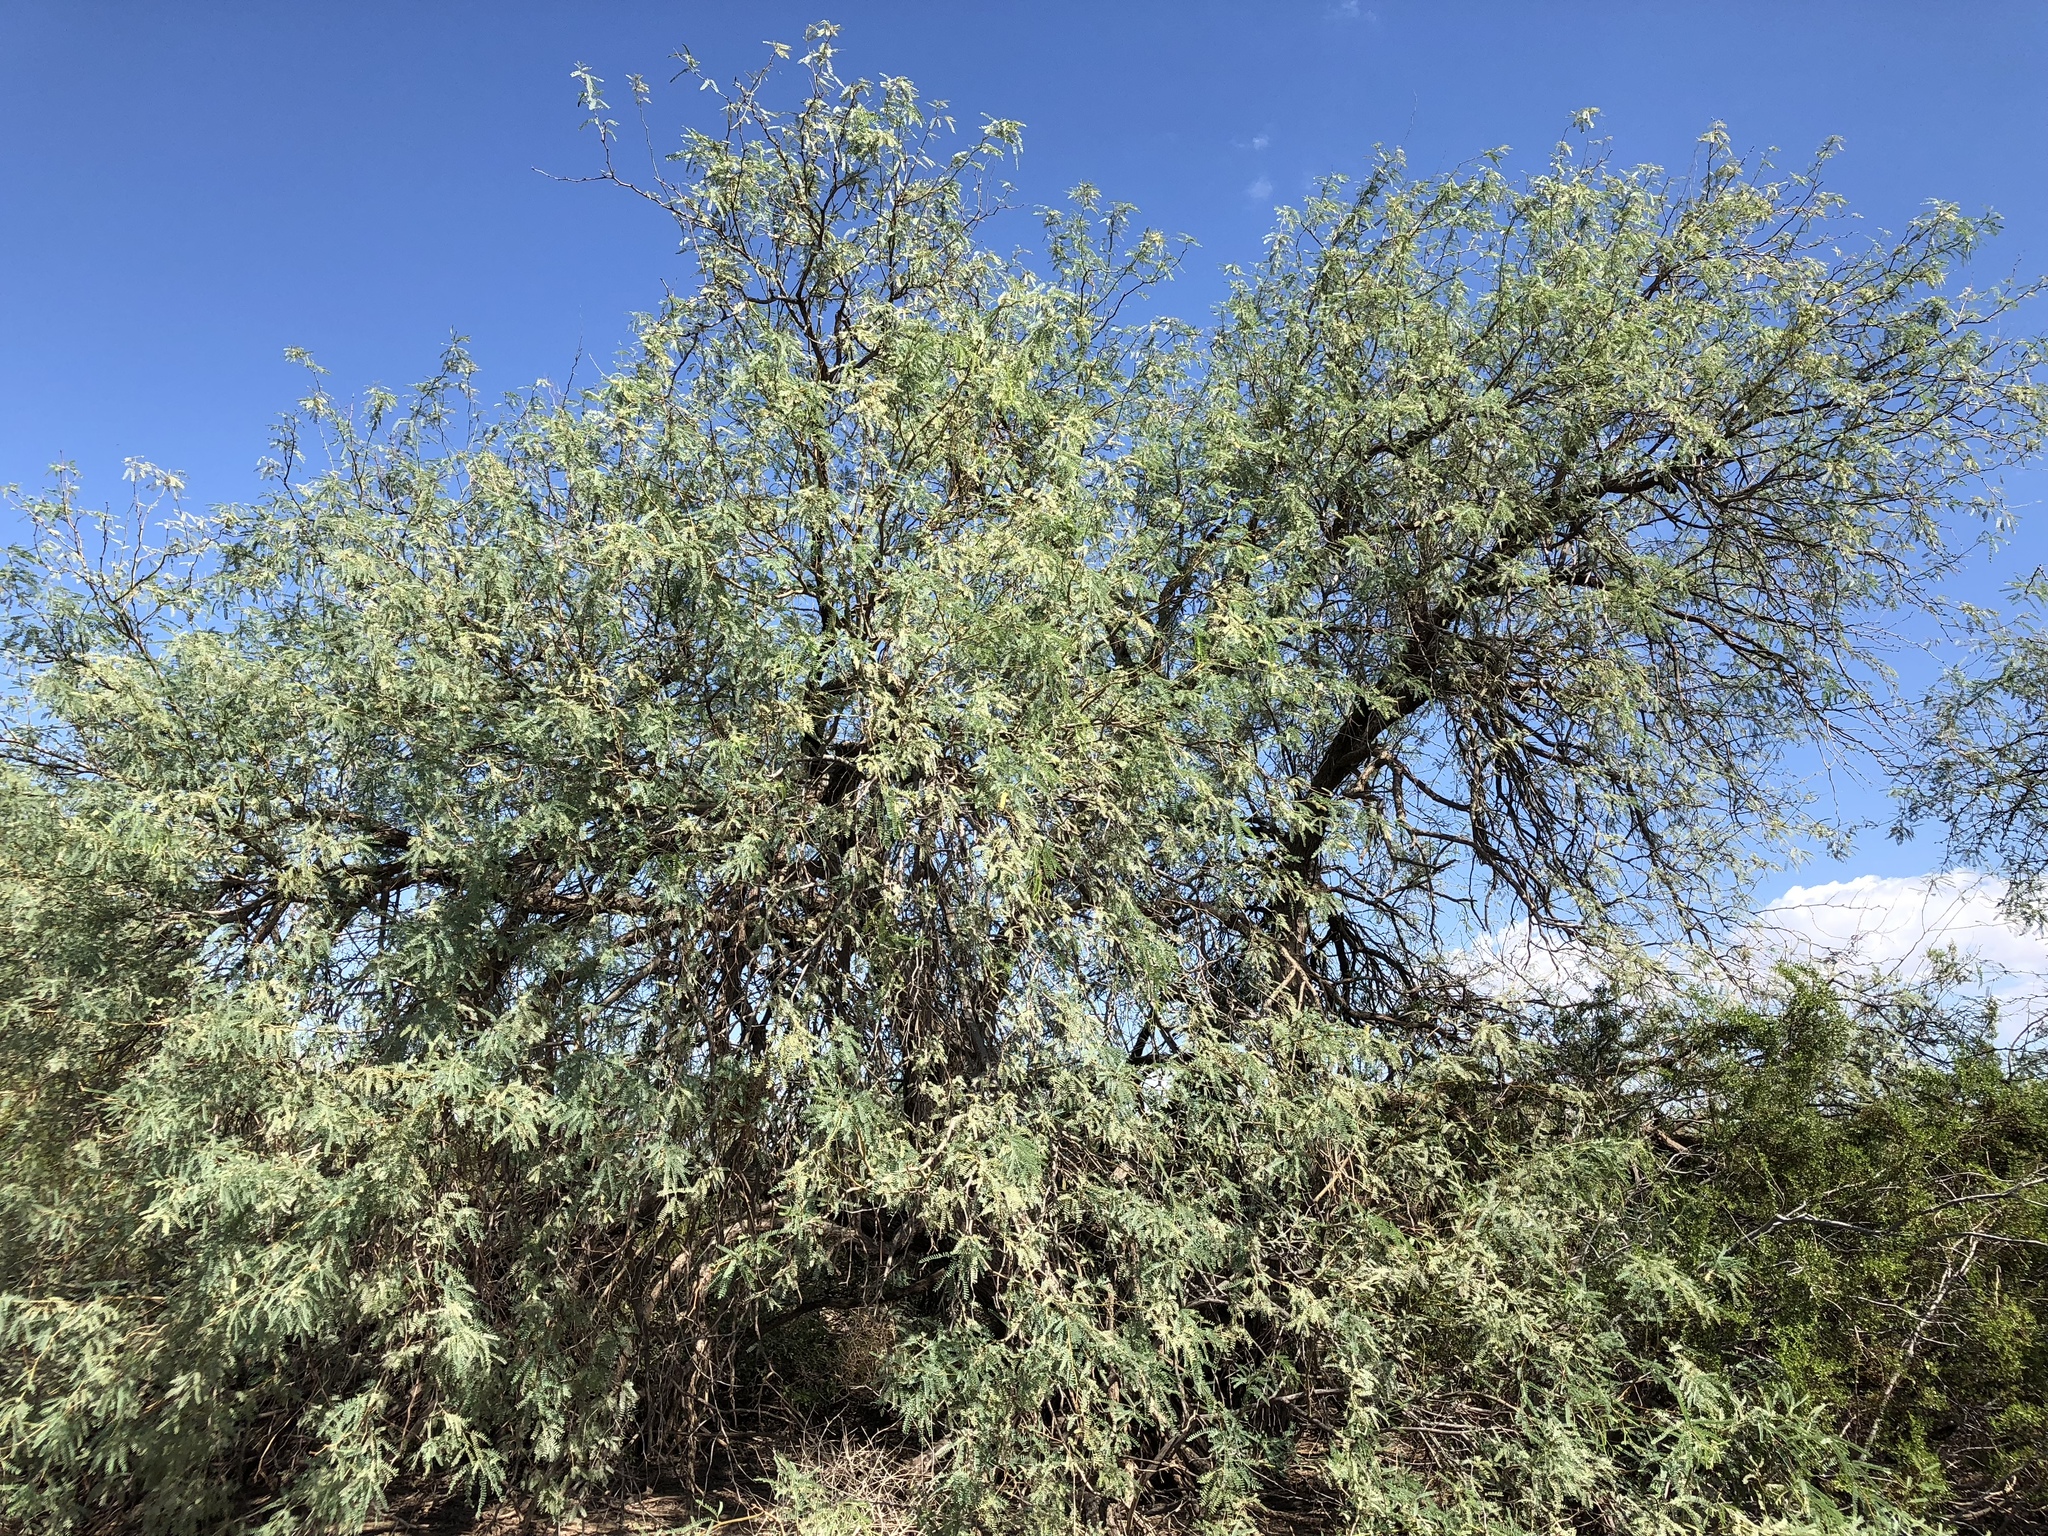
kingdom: Plantae
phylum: Tracheophyta
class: Magnoliopsida
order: Fabales
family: Fabaceae
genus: Prosopis
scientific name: Prosopis velutina
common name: Velvet mesquite
